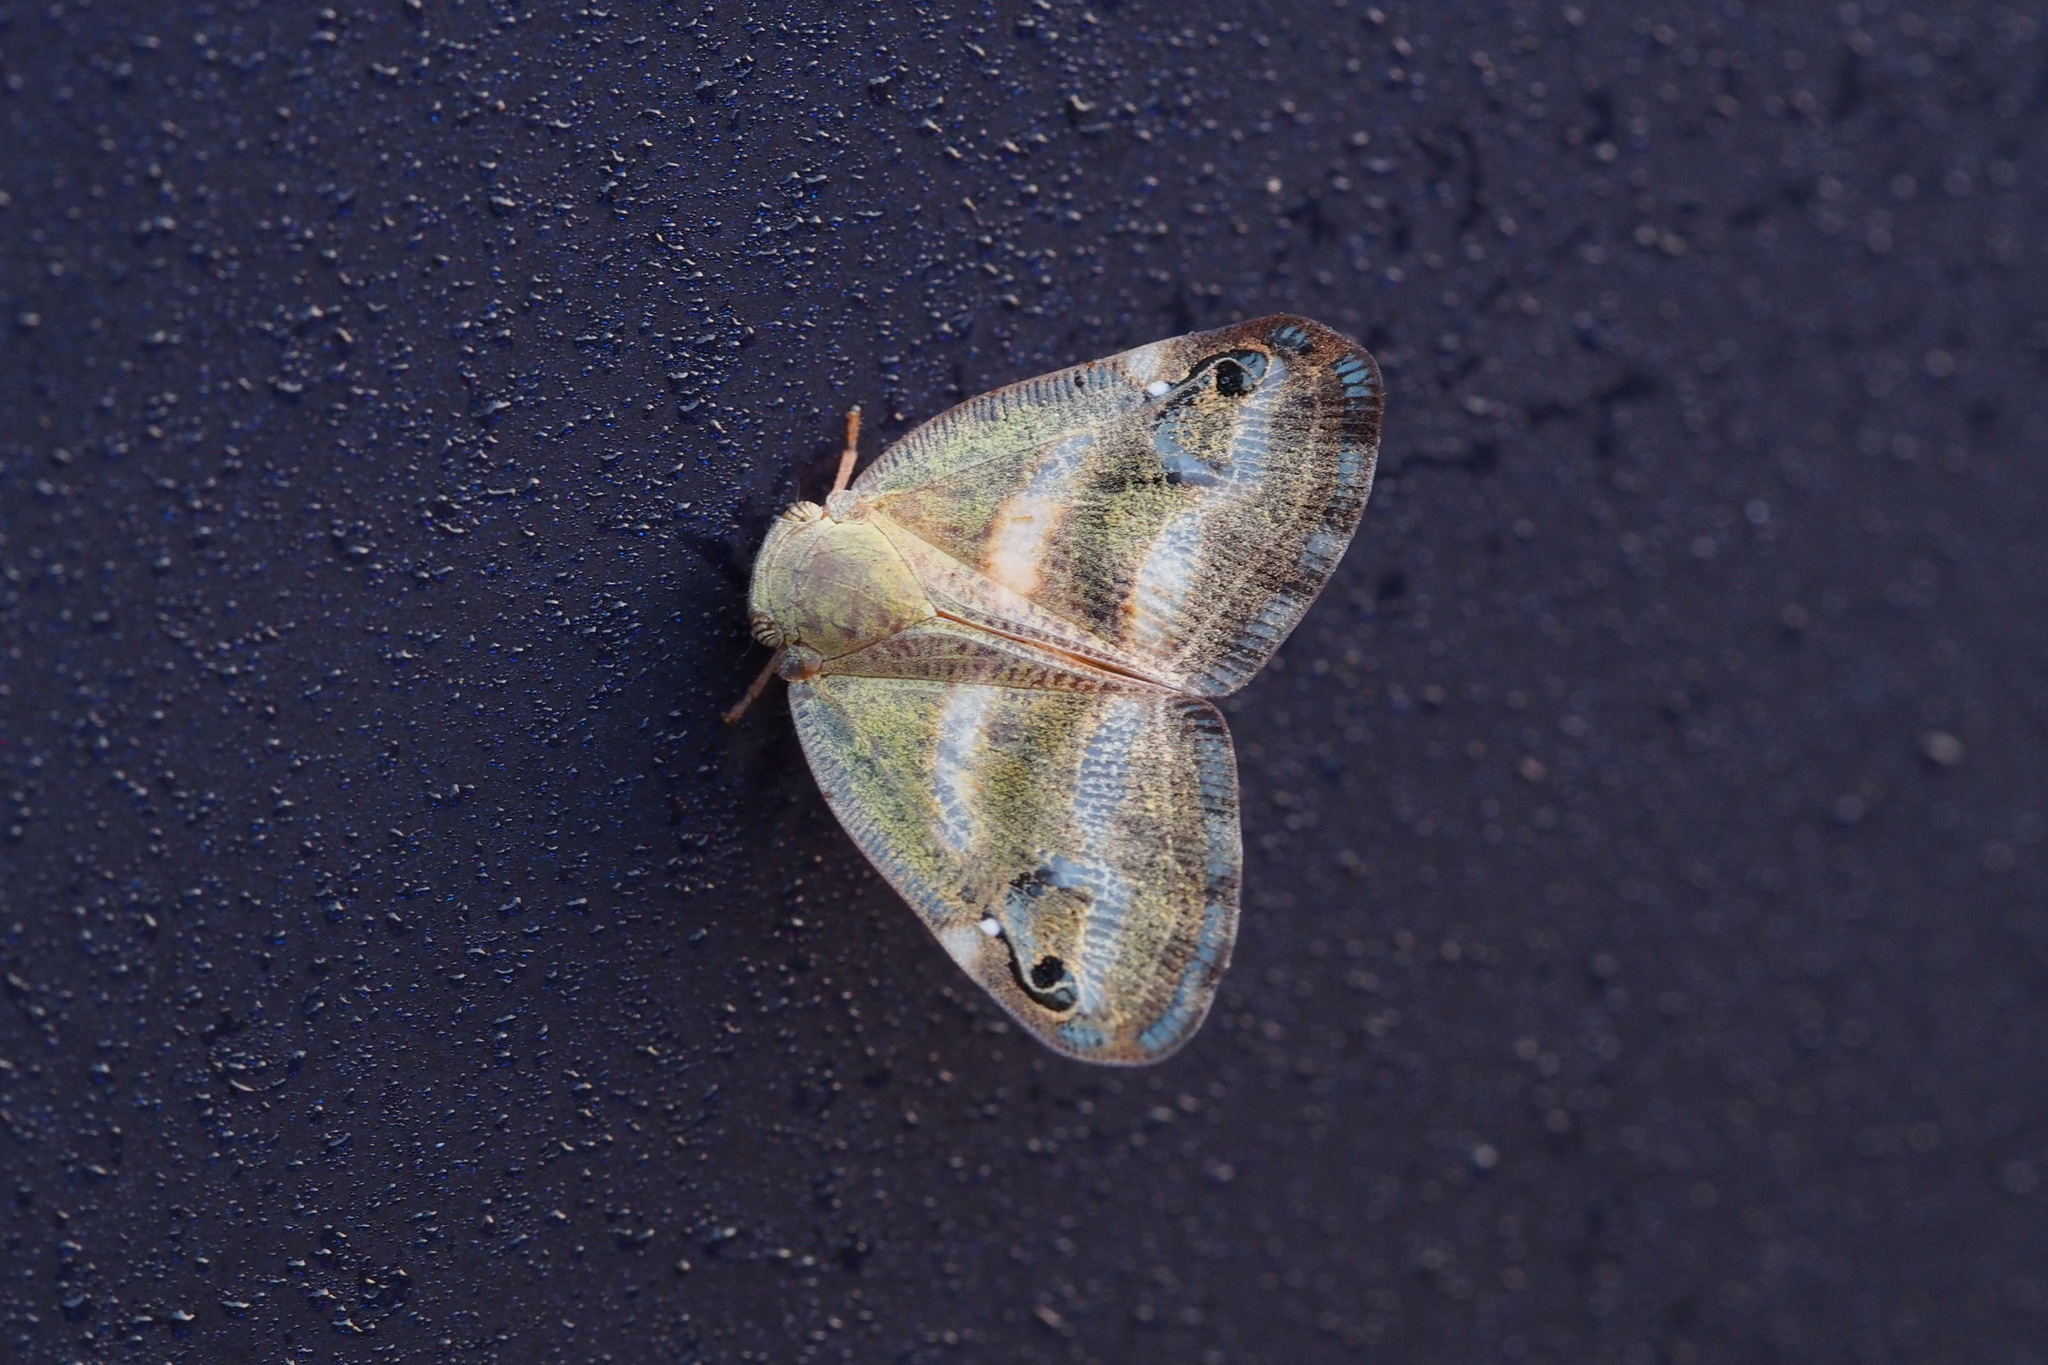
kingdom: Animalia
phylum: Arthropoda
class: Insecta
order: Hemiptera
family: Ricaniidae
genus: Orosanga
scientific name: Orosanga japonica
